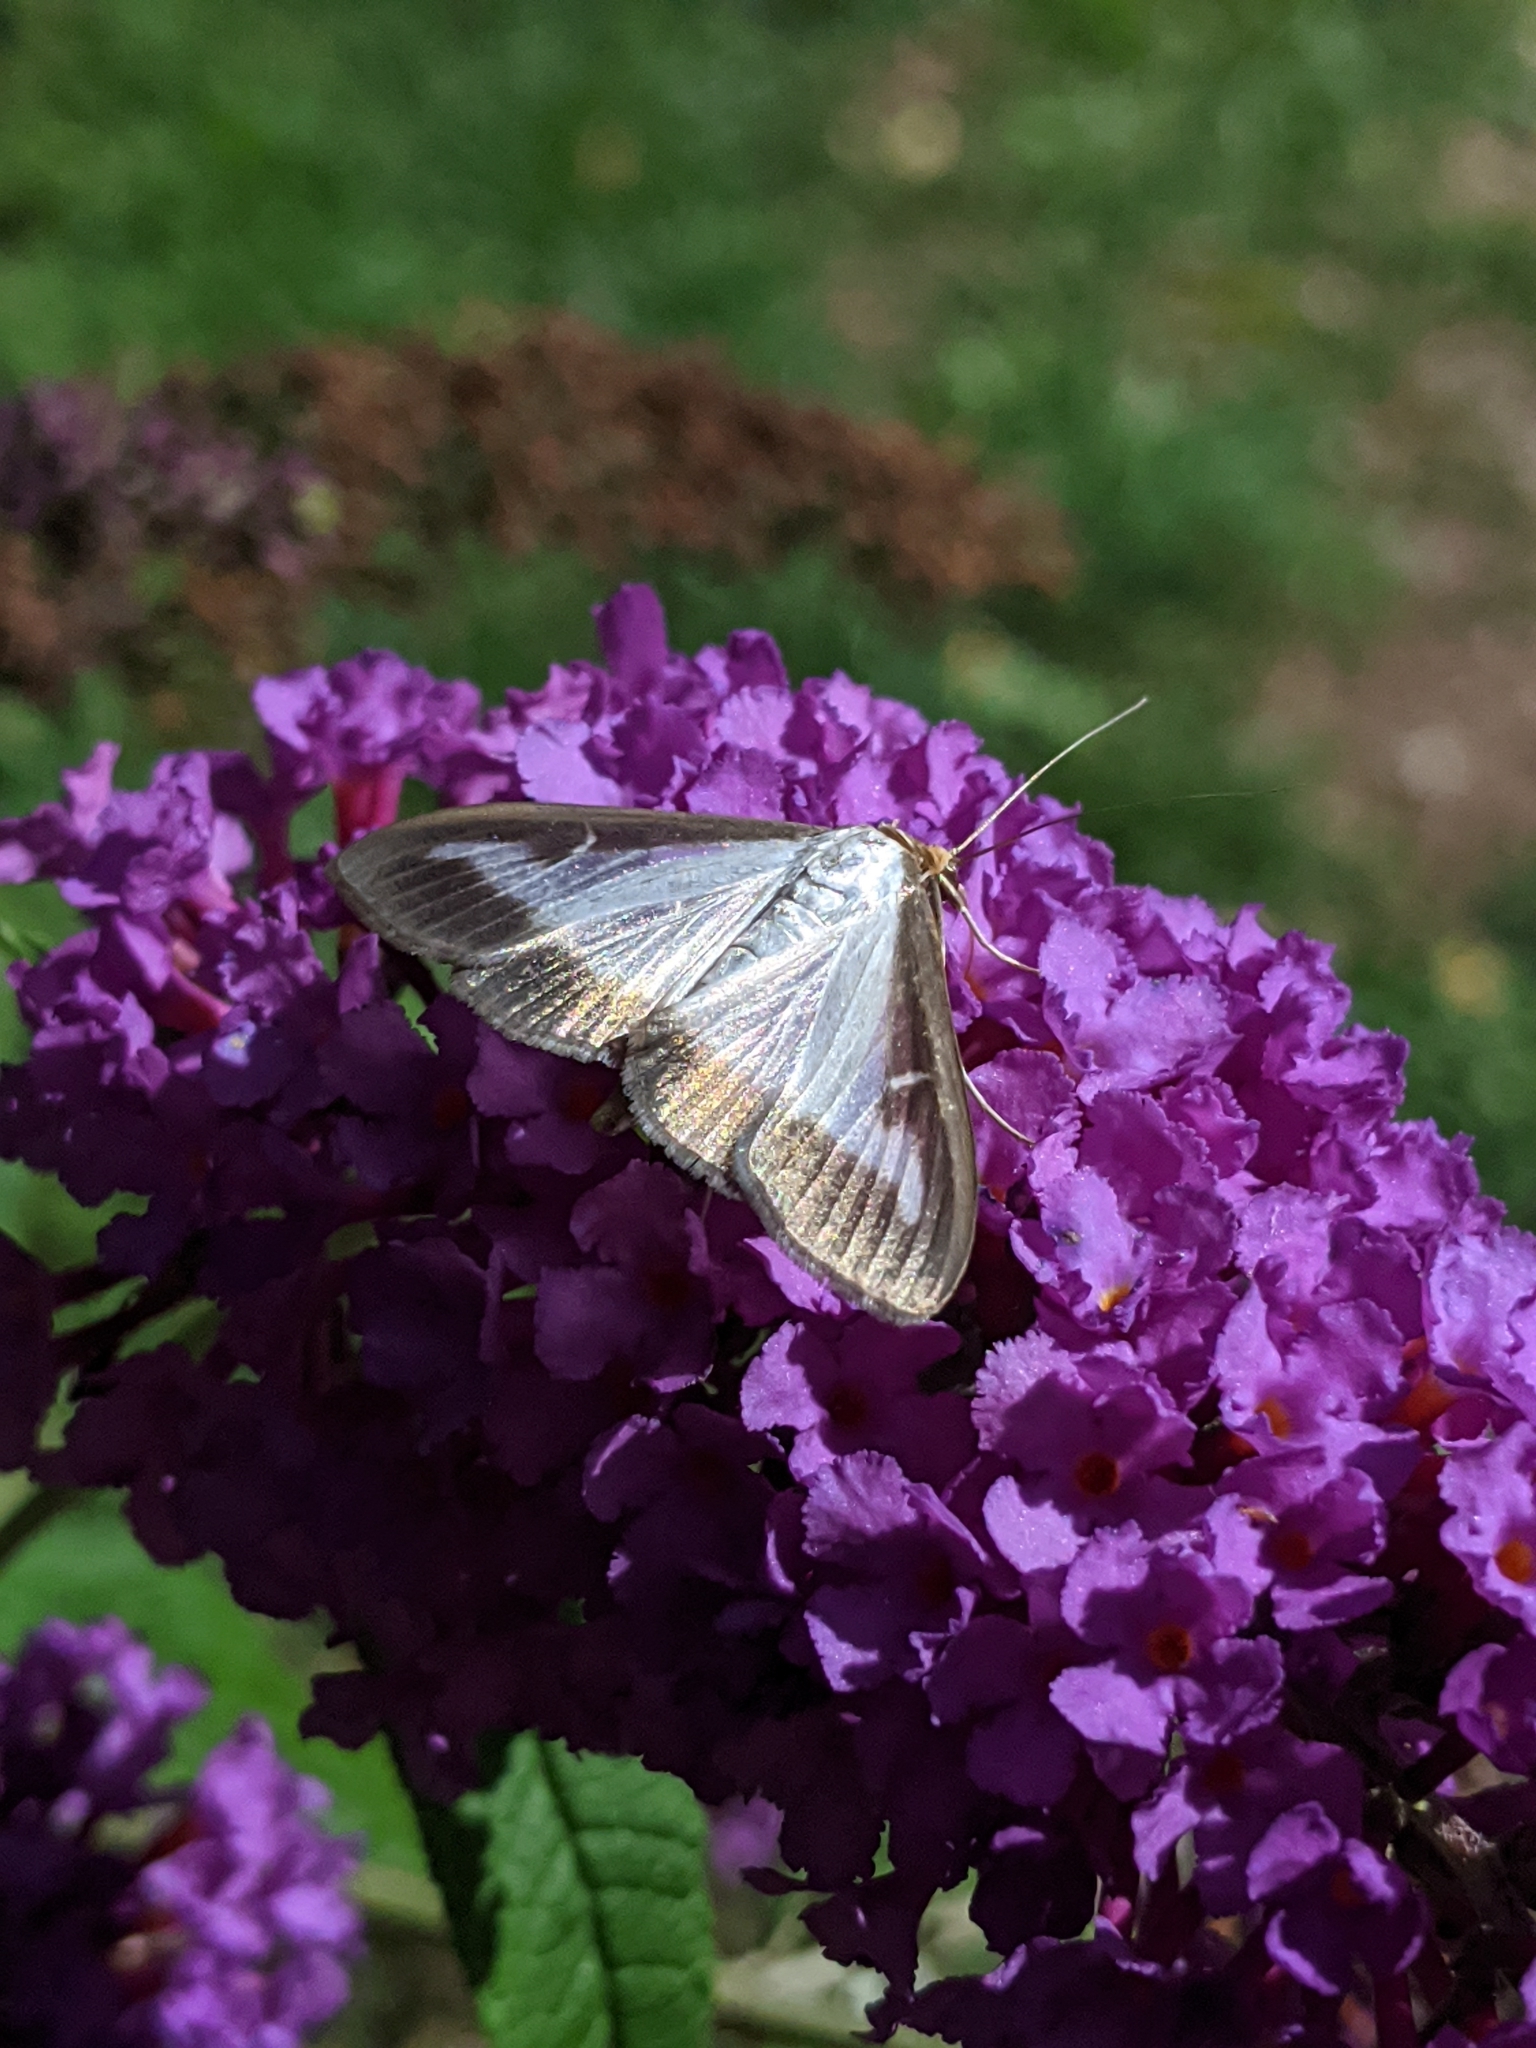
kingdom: Animalia
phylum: Arthropoda
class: Insecta
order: Lepidoptera
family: Crambidae
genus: Cydalima
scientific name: Cydalima perspectalis
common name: Box tree moth
